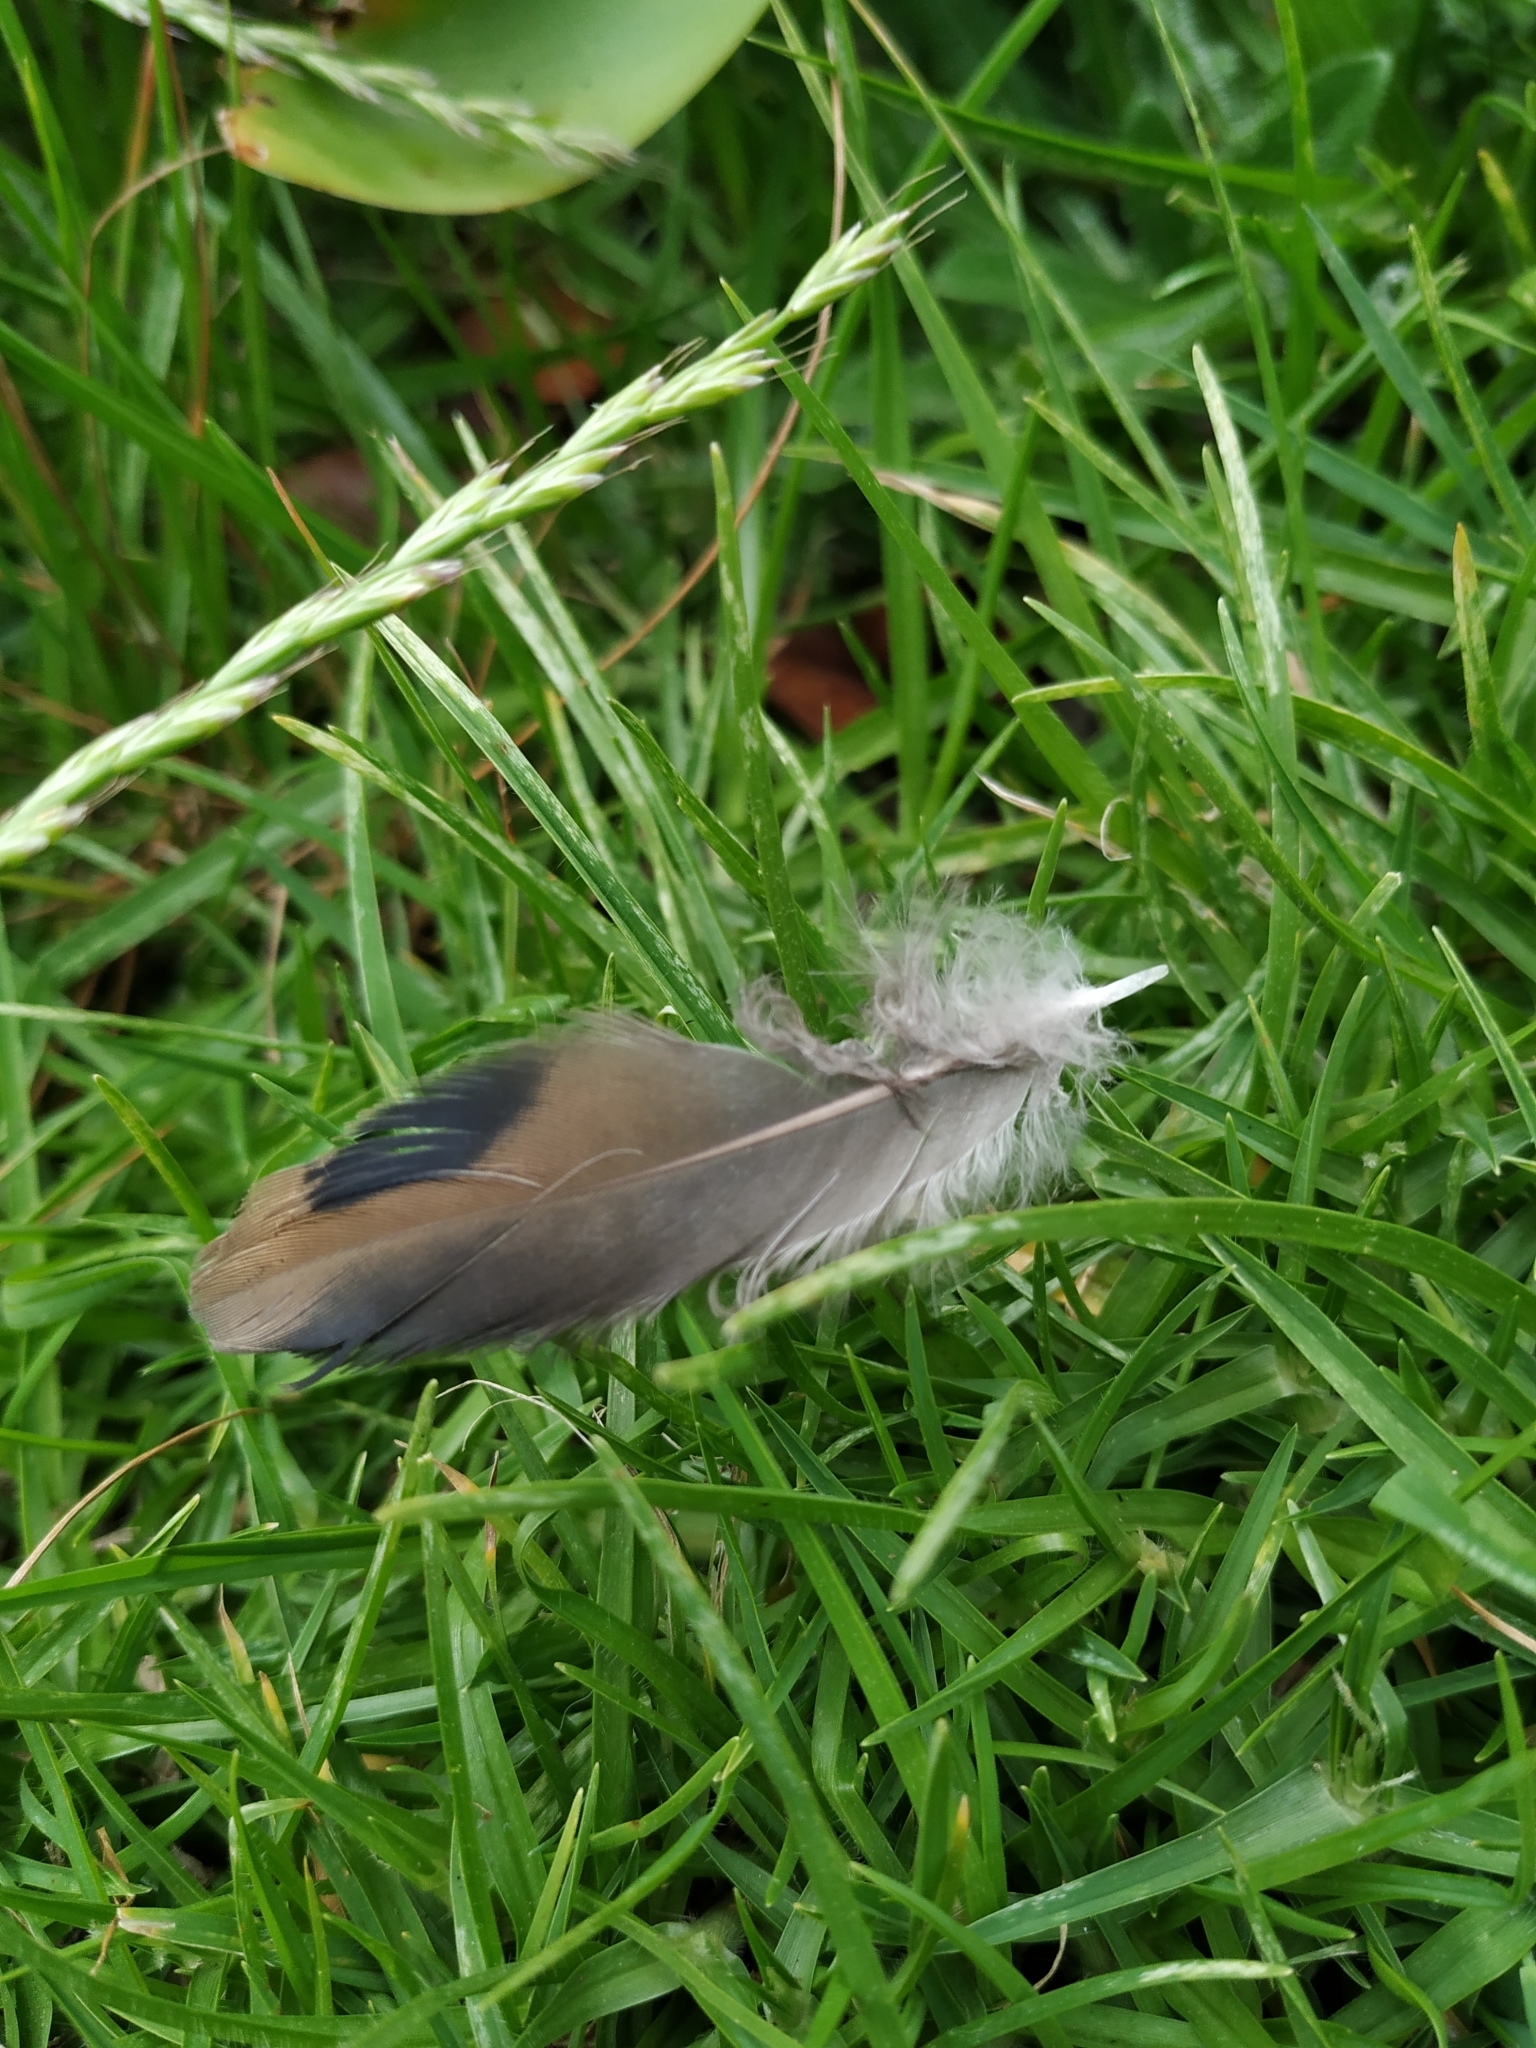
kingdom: Animalia
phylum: Chordata
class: Aves
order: Columbiformes
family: Columbidae
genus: Zenaida
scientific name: Zenaida auriculata
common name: Eared dove
